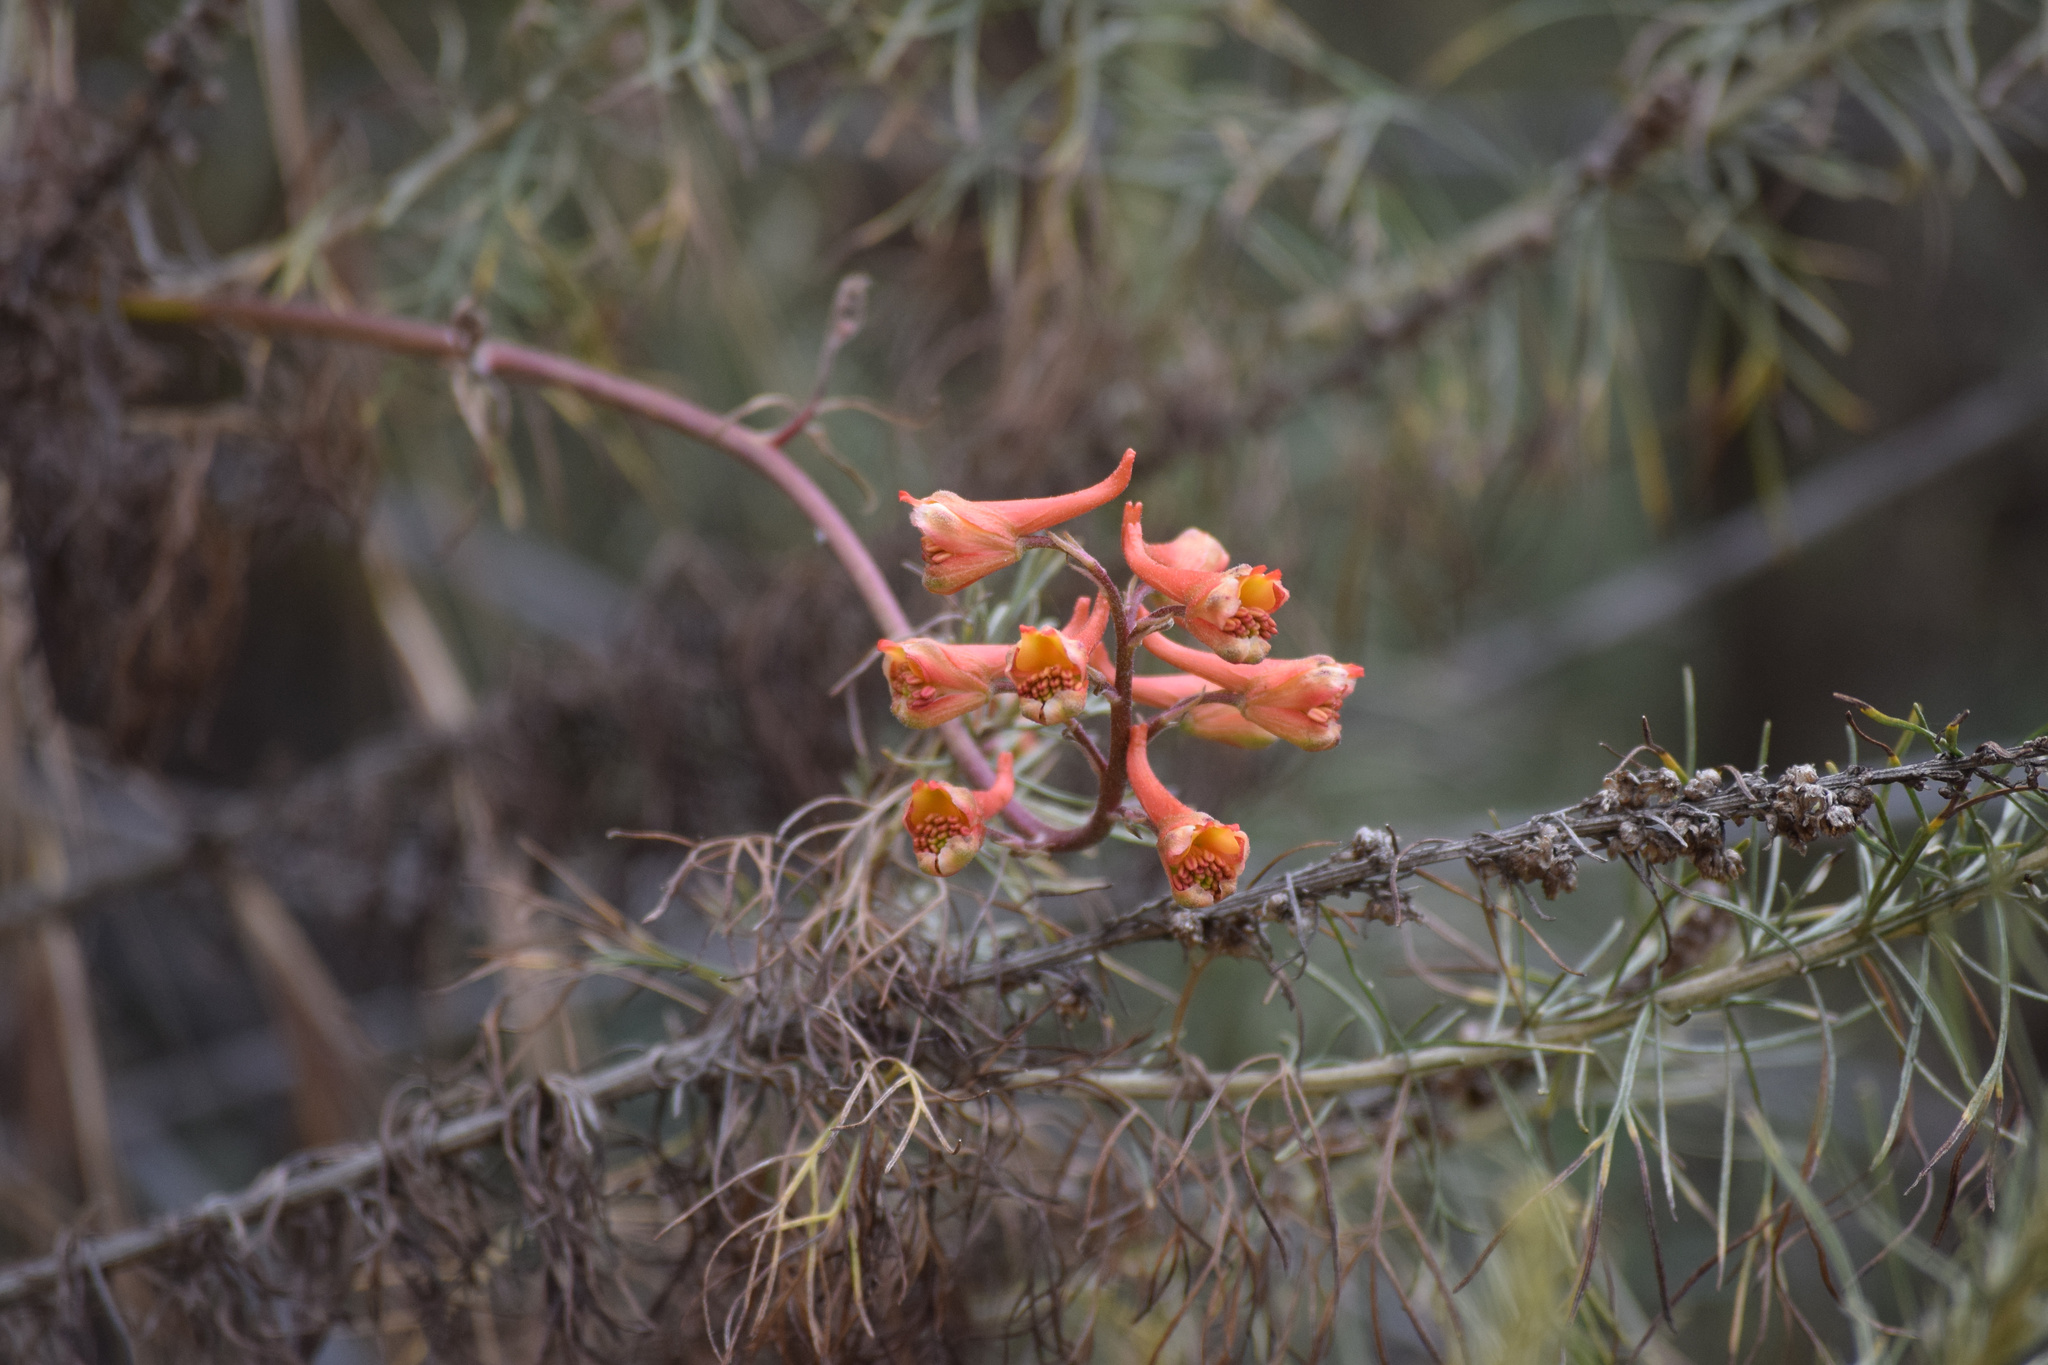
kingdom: Plantae
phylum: Tracheophyta
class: Magnoliopsida
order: Ranunculales
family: Ranunculaceae
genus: Delphinium
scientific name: Delphinium cardinale
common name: Scarlet larkspur
